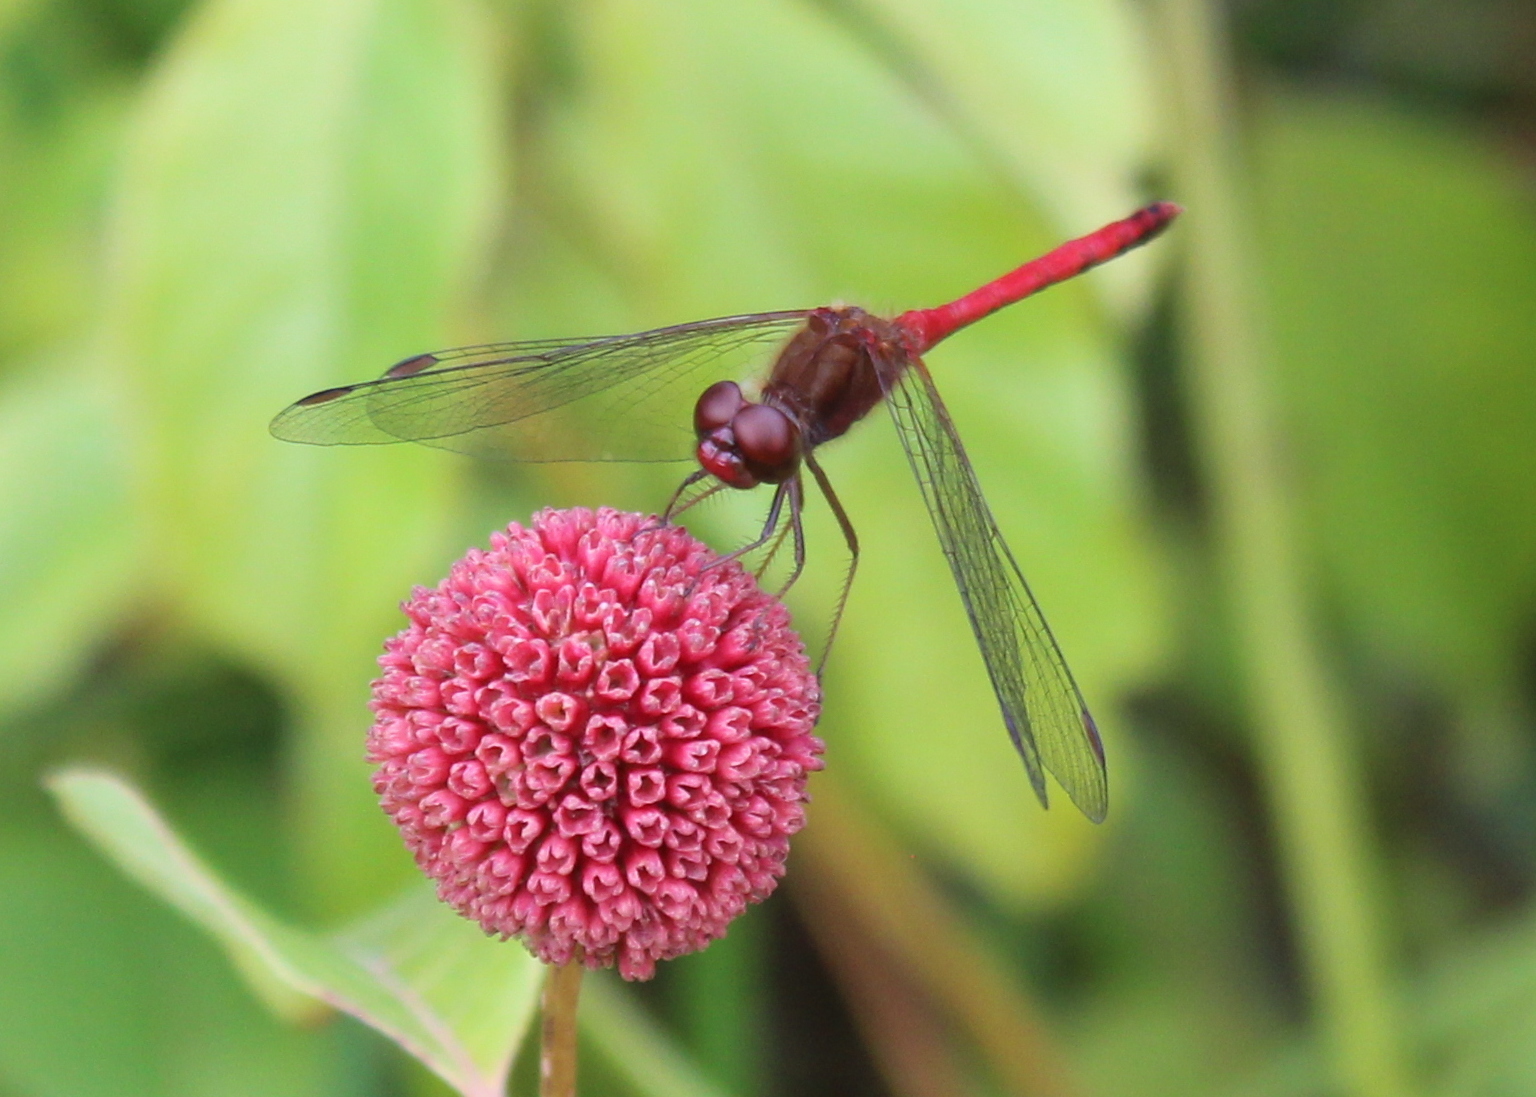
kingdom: Animalia
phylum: Arthropoda
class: Insecta
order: Odonata
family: Libellulidae
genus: Sympetrum
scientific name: Sympetrum vicinum
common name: Autumn meadowhawk
